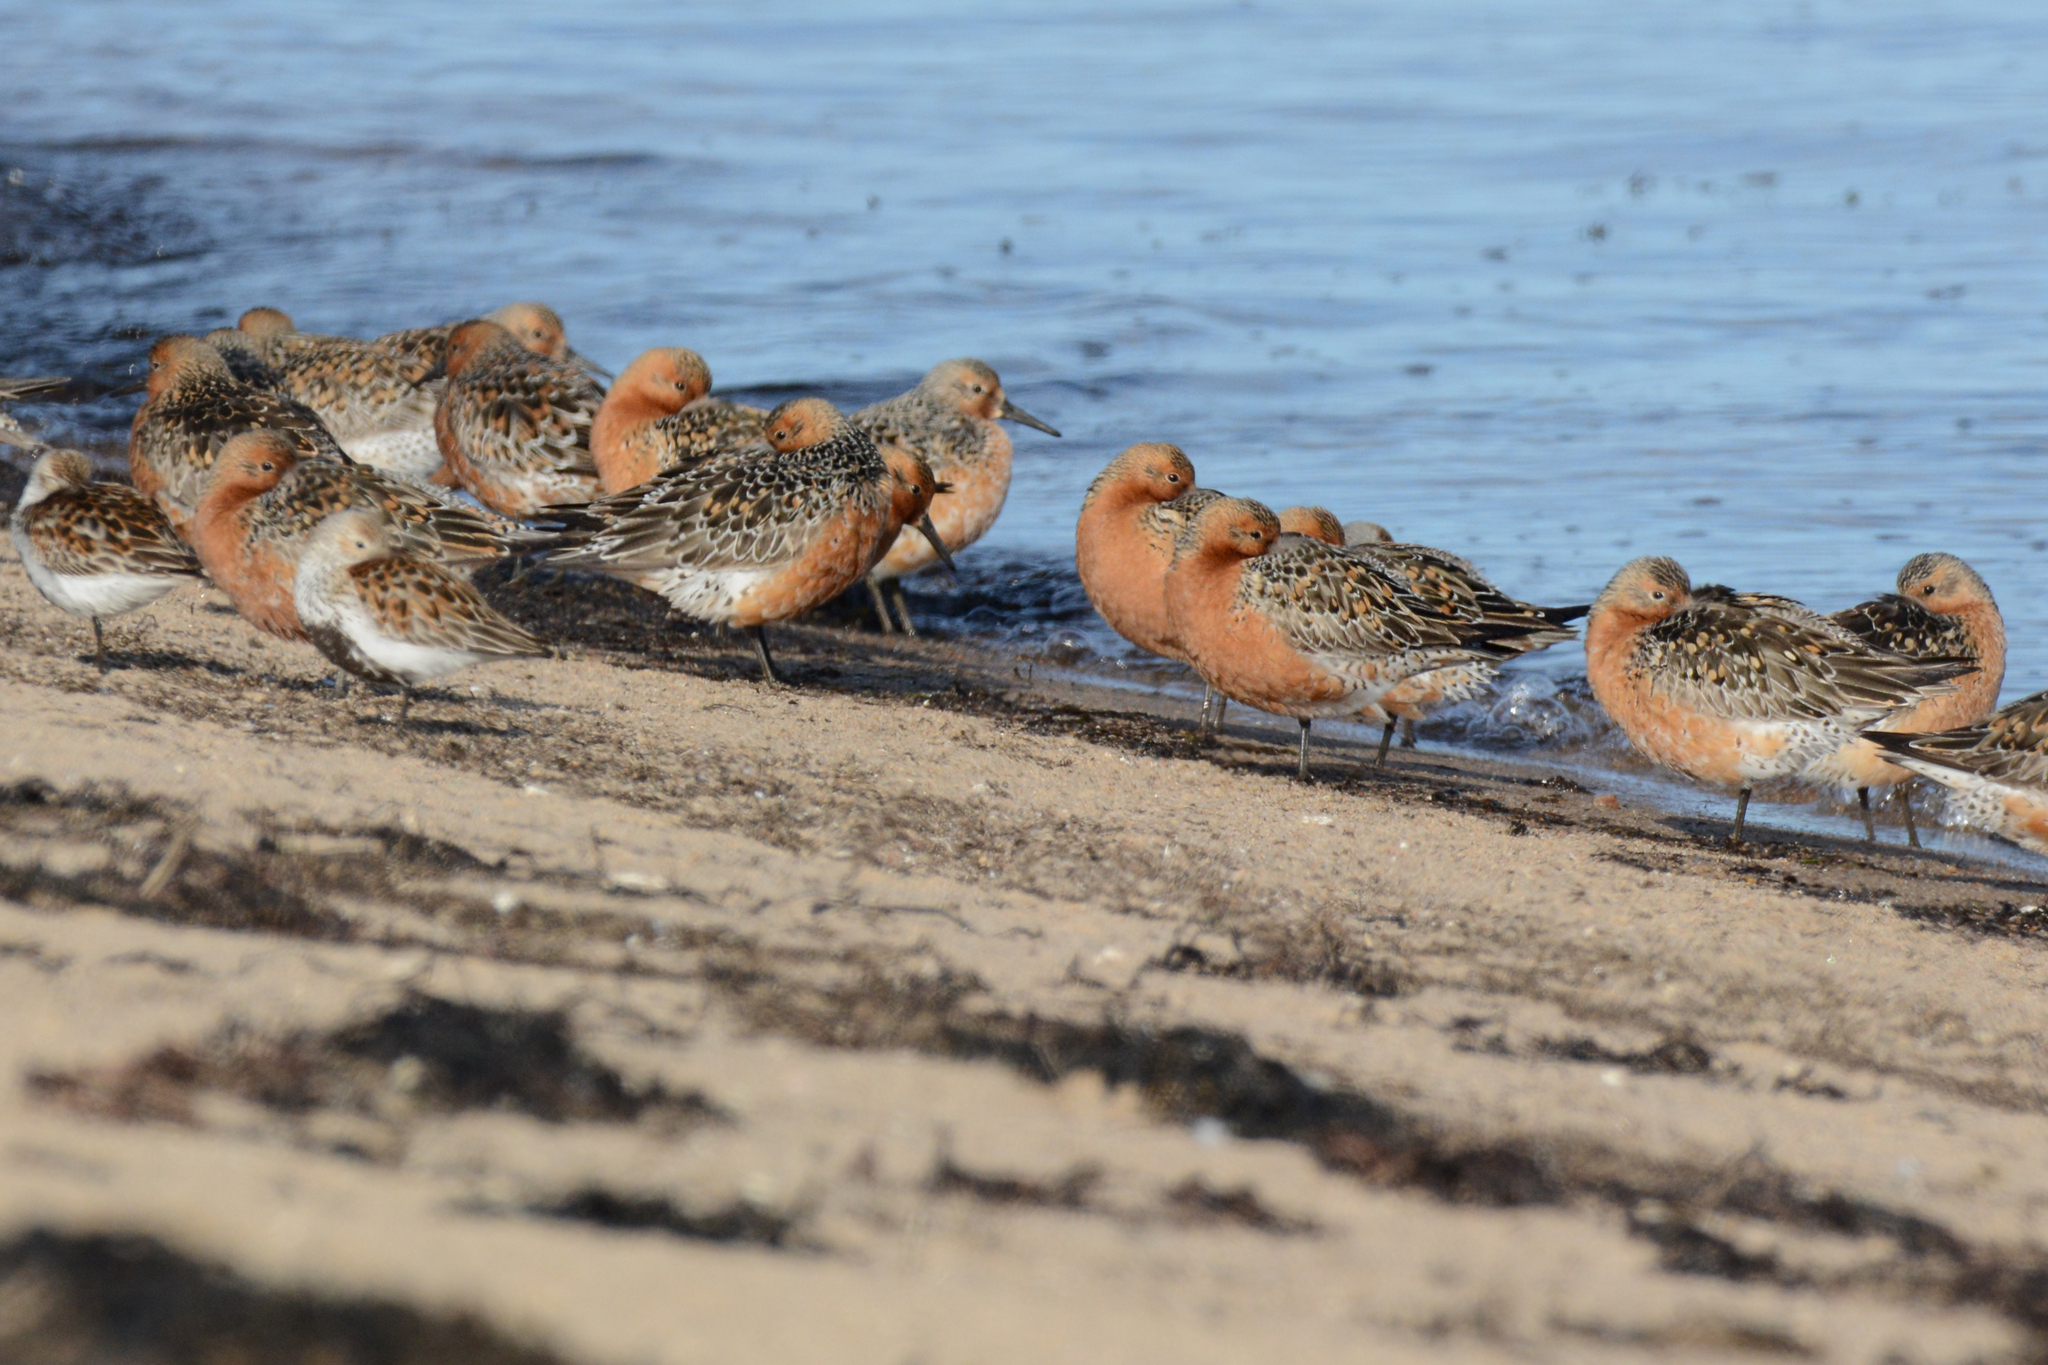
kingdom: Animalia
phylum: Chordata
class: Aves
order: Charadriiformes
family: Scolopacidae
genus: Calidris
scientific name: Calidris canutus
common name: Red knot
